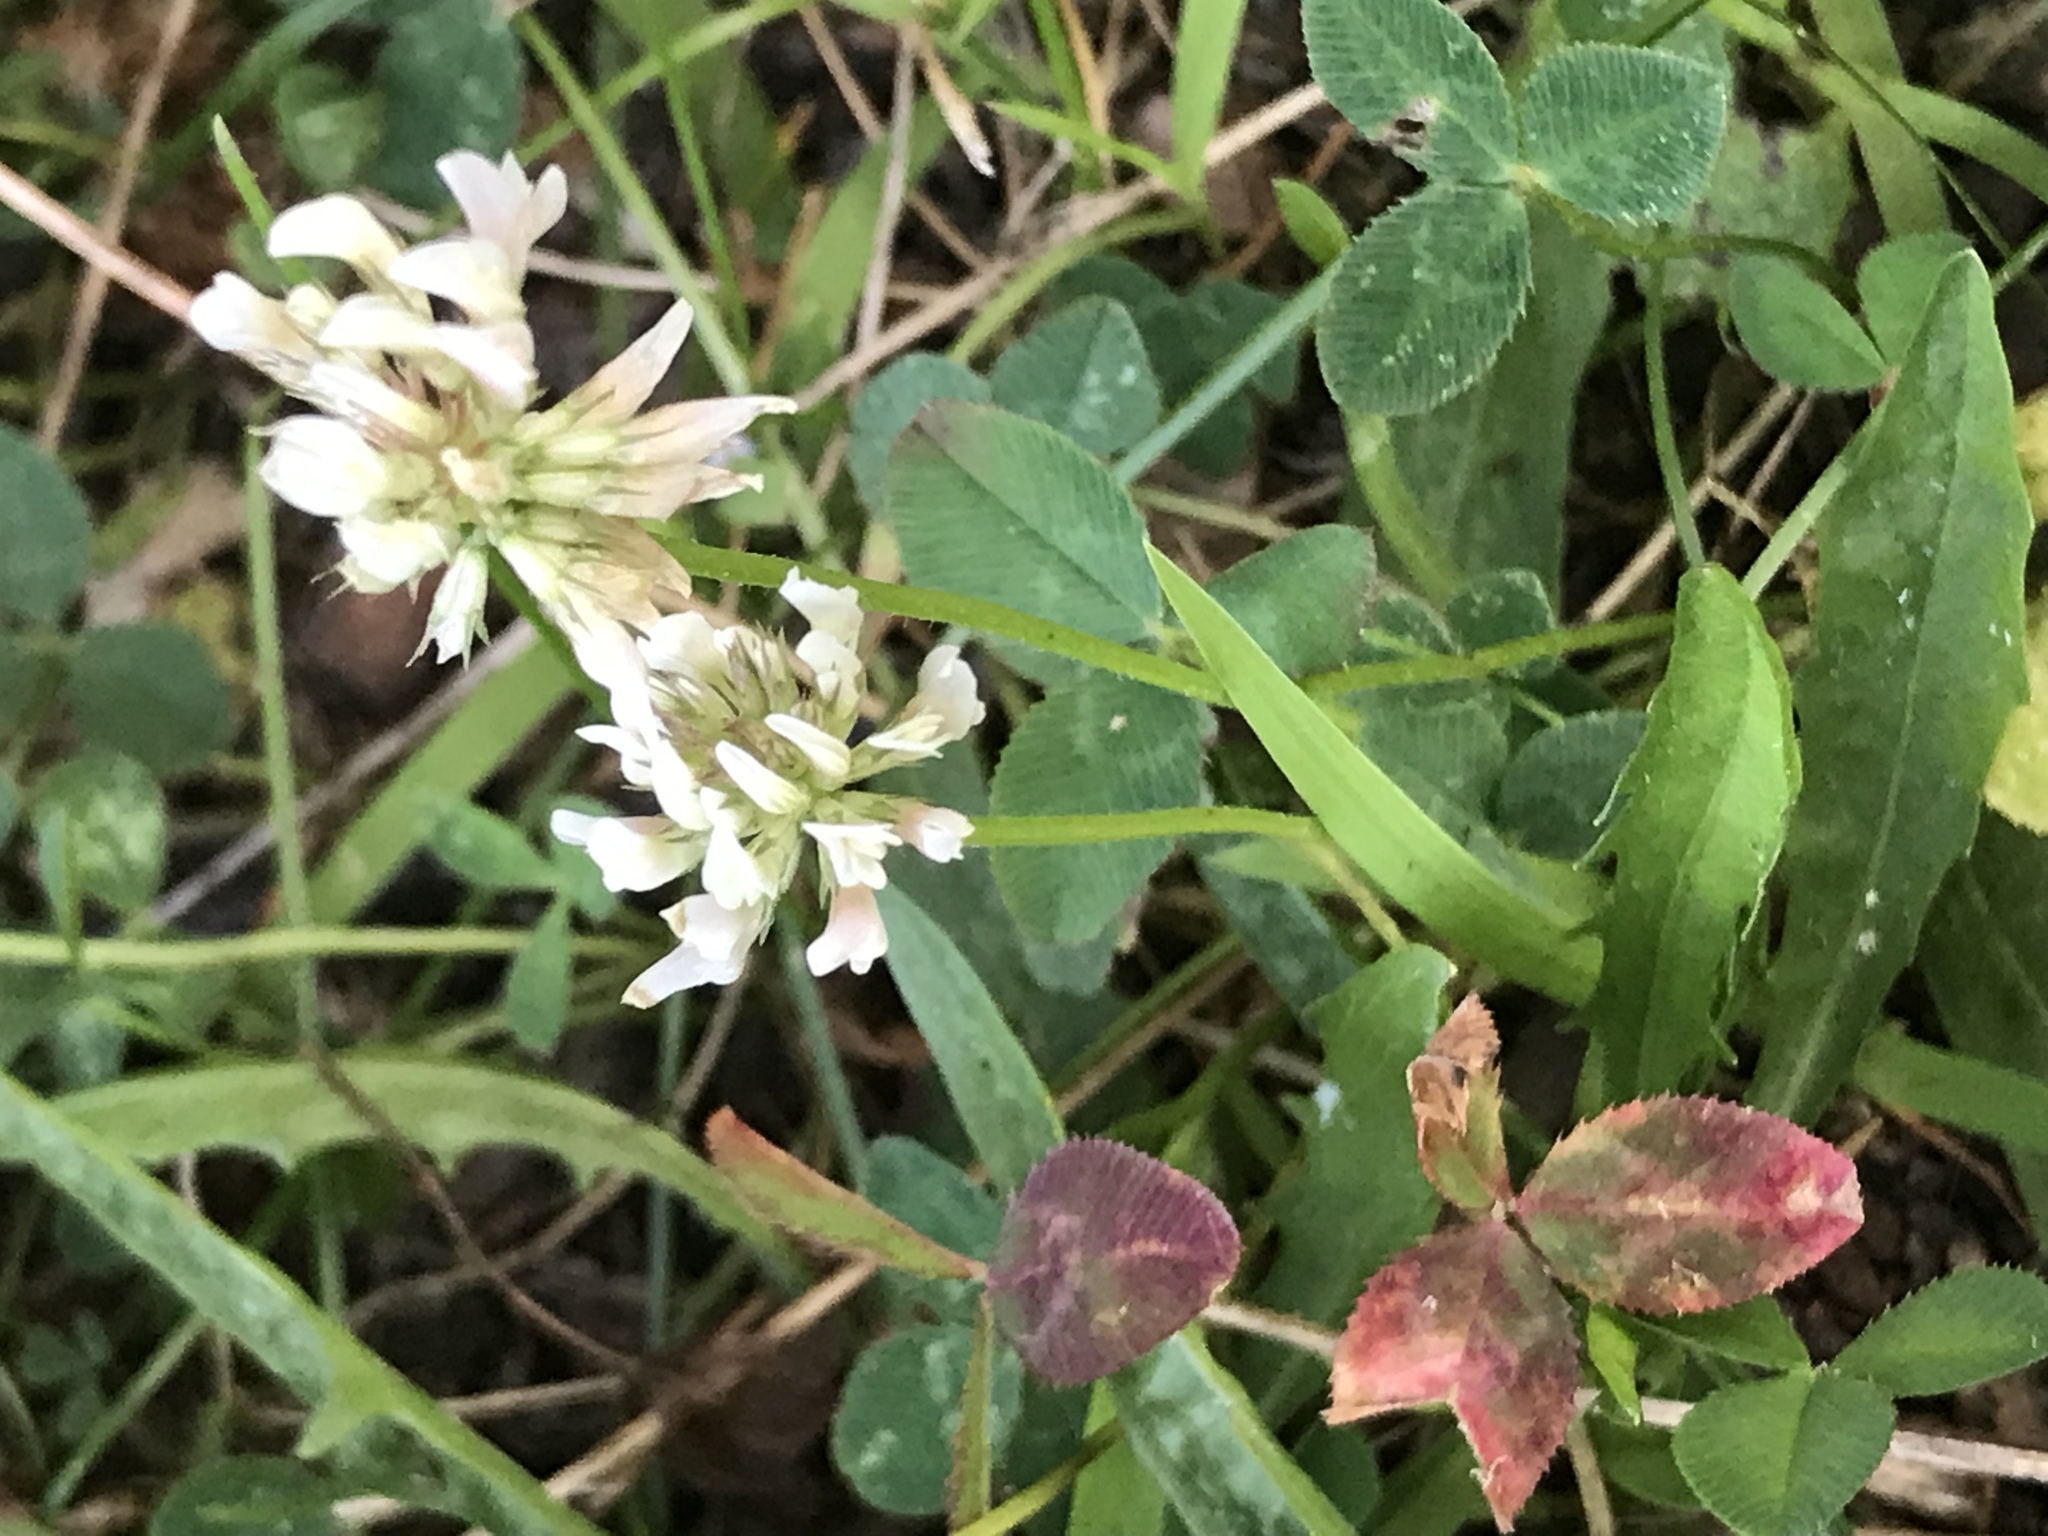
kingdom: Plantae
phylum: Tracheophyta
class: Magnoliopsida
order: Fabales
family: Fabaceae
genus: Trifolium
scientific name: Trifolium repens
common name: White clover
